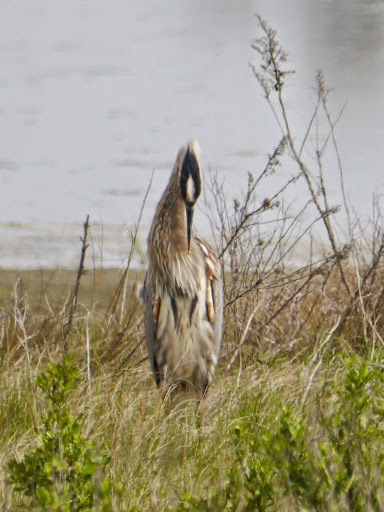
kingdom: Animalia
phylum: Chordata
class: Aves
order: Pelecaniformes
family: Ardeidae
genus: Ardea
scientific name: Ardea herodias
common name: Great blue heron
